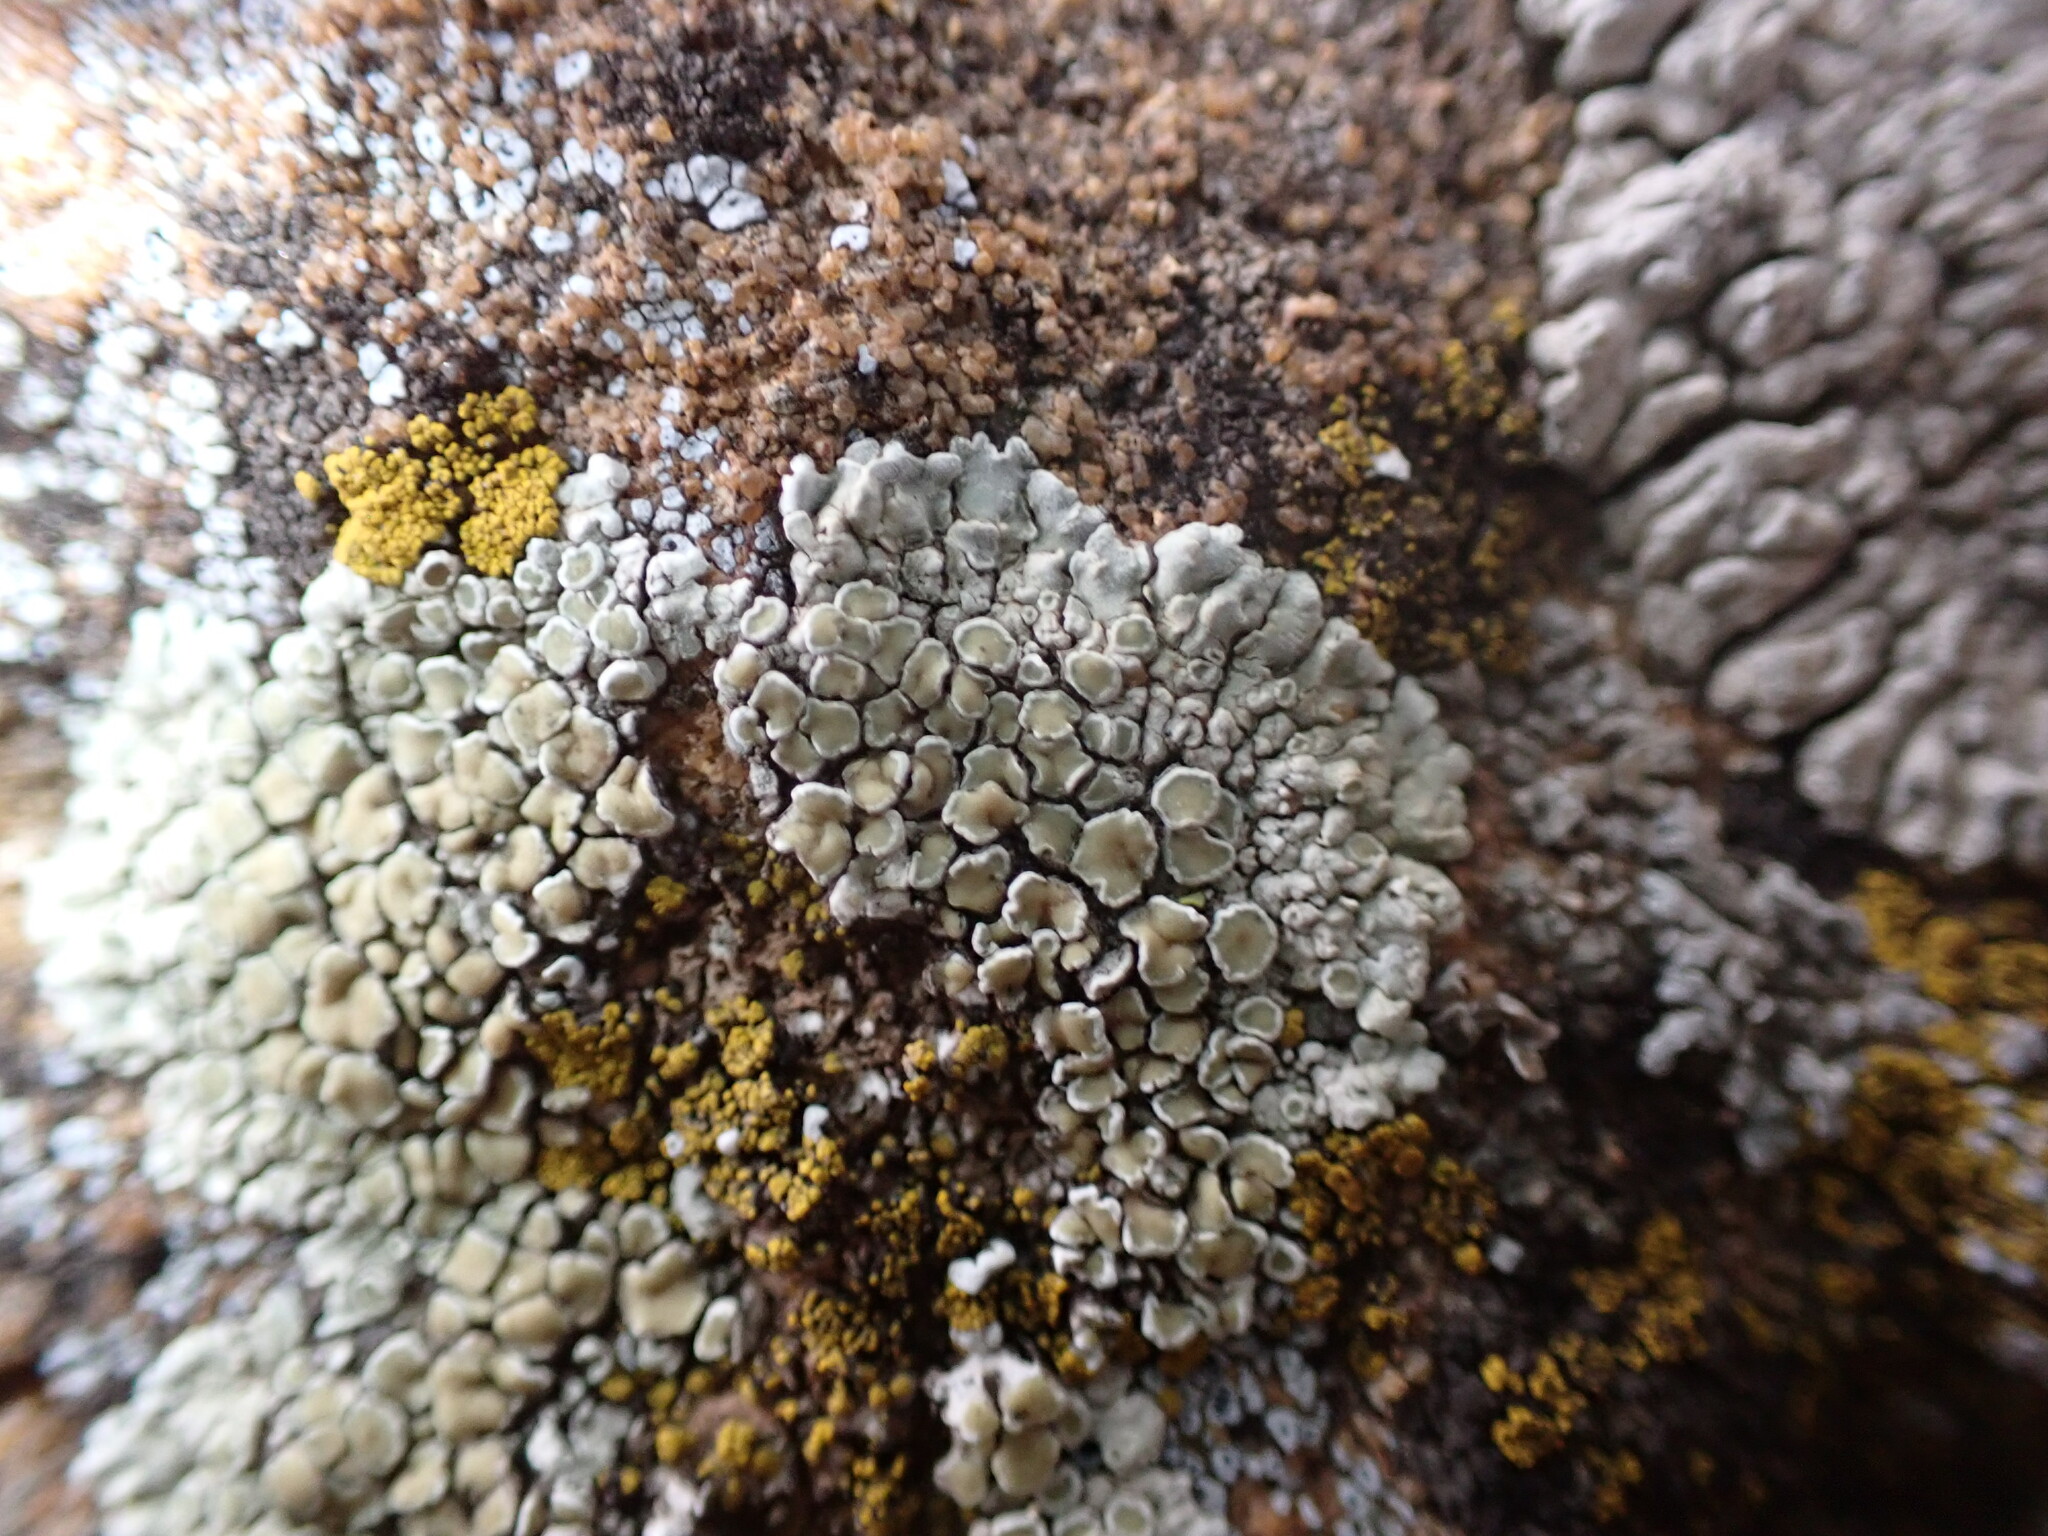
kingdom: Fungi
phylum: Ascomycota
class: Lecanoromycetes
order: Lecanorales
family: Lecanoraceae
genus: Protoparmeliopsis
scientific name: Protoparmeliopsis muralis
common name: Stonewall rim lichen
